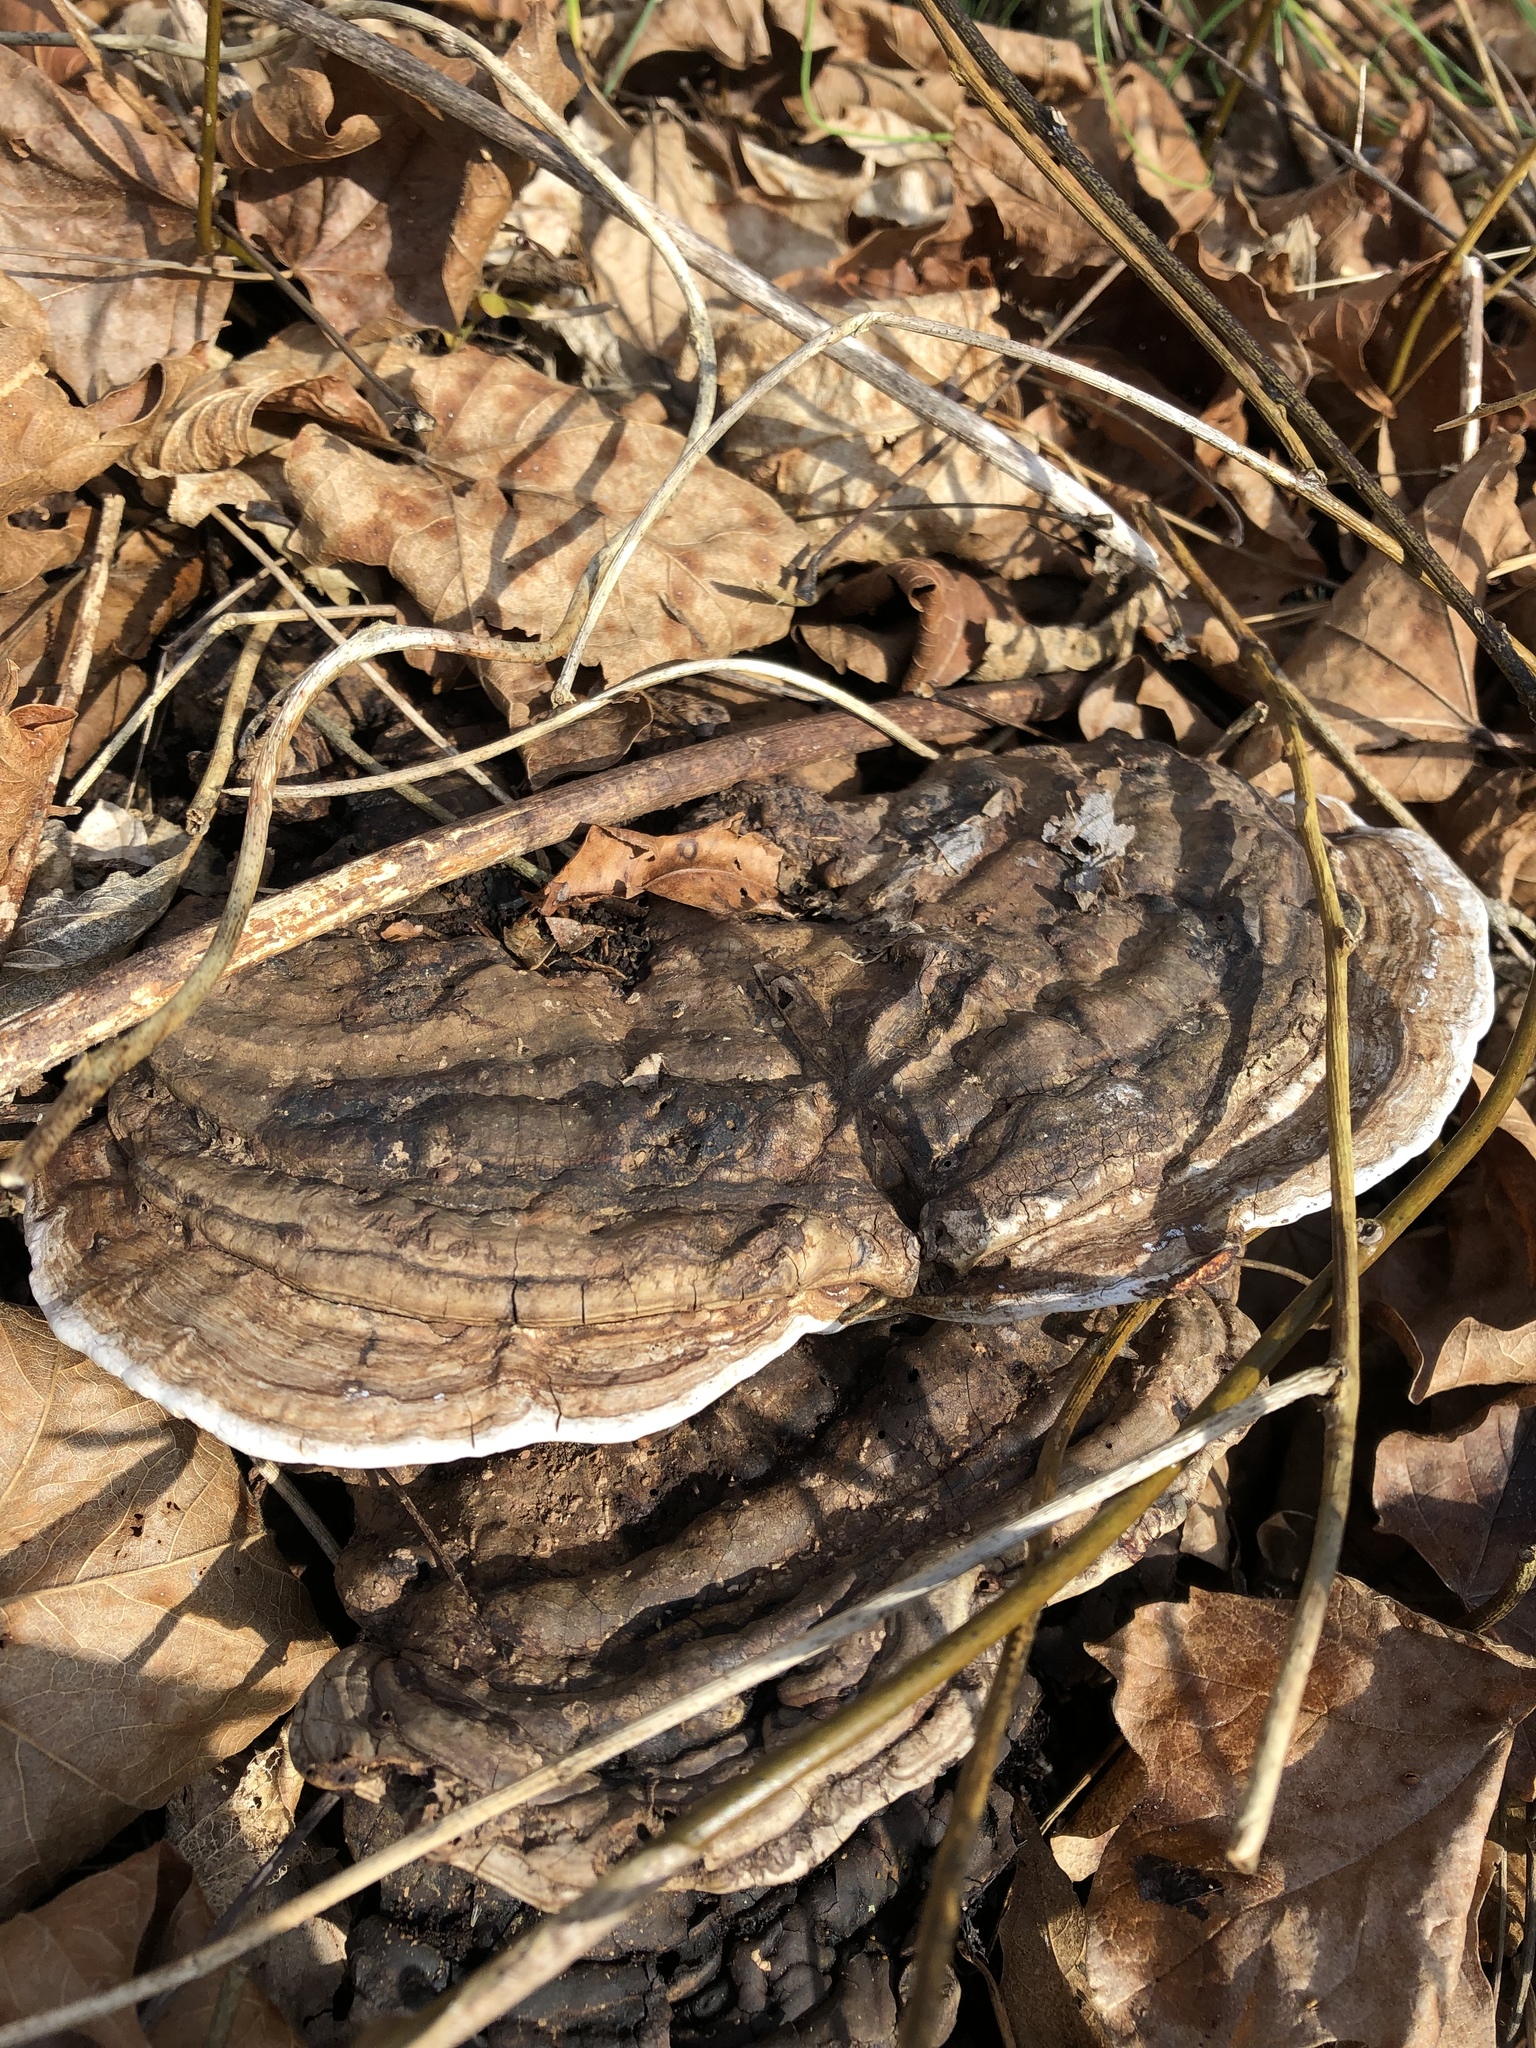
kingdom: Fungi
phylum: Basidiomycota
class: Agaricomycetes
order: Polyporales
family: Polyporaceae
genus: Ganoderma
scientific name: Ganoderma applanatum
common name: Artist's bracket
